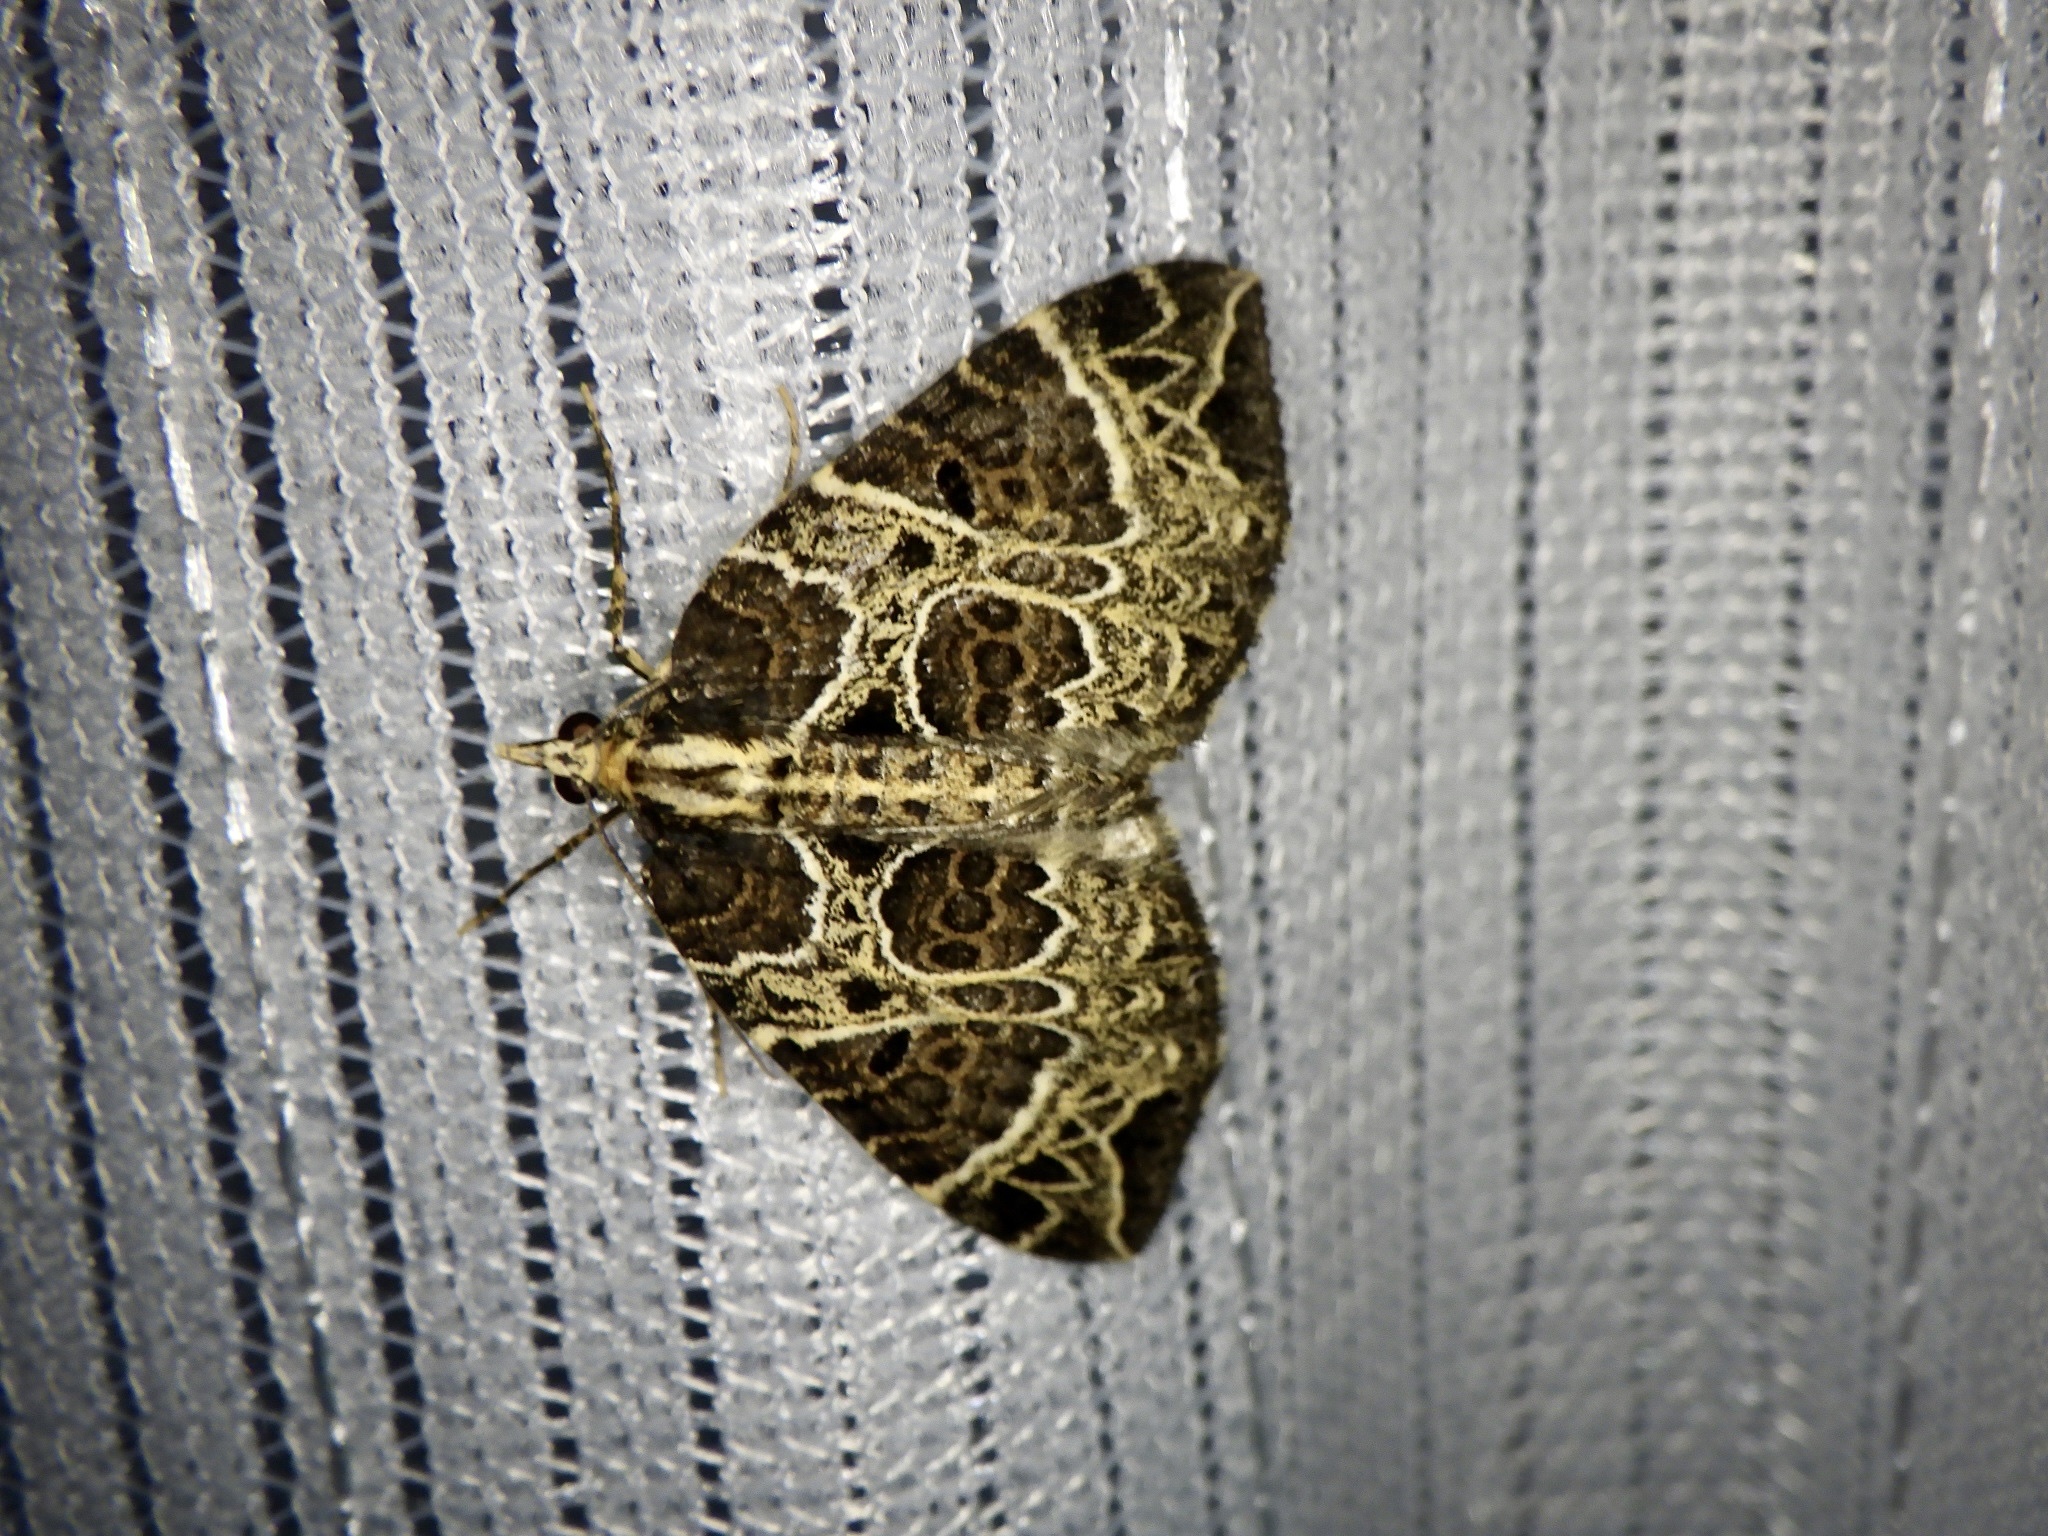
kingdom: Animalia
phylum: Arthropoda
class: Insecta
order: Lepidoptera
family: Geometridae
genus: Eustroma
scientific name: Eustroma melancholica
